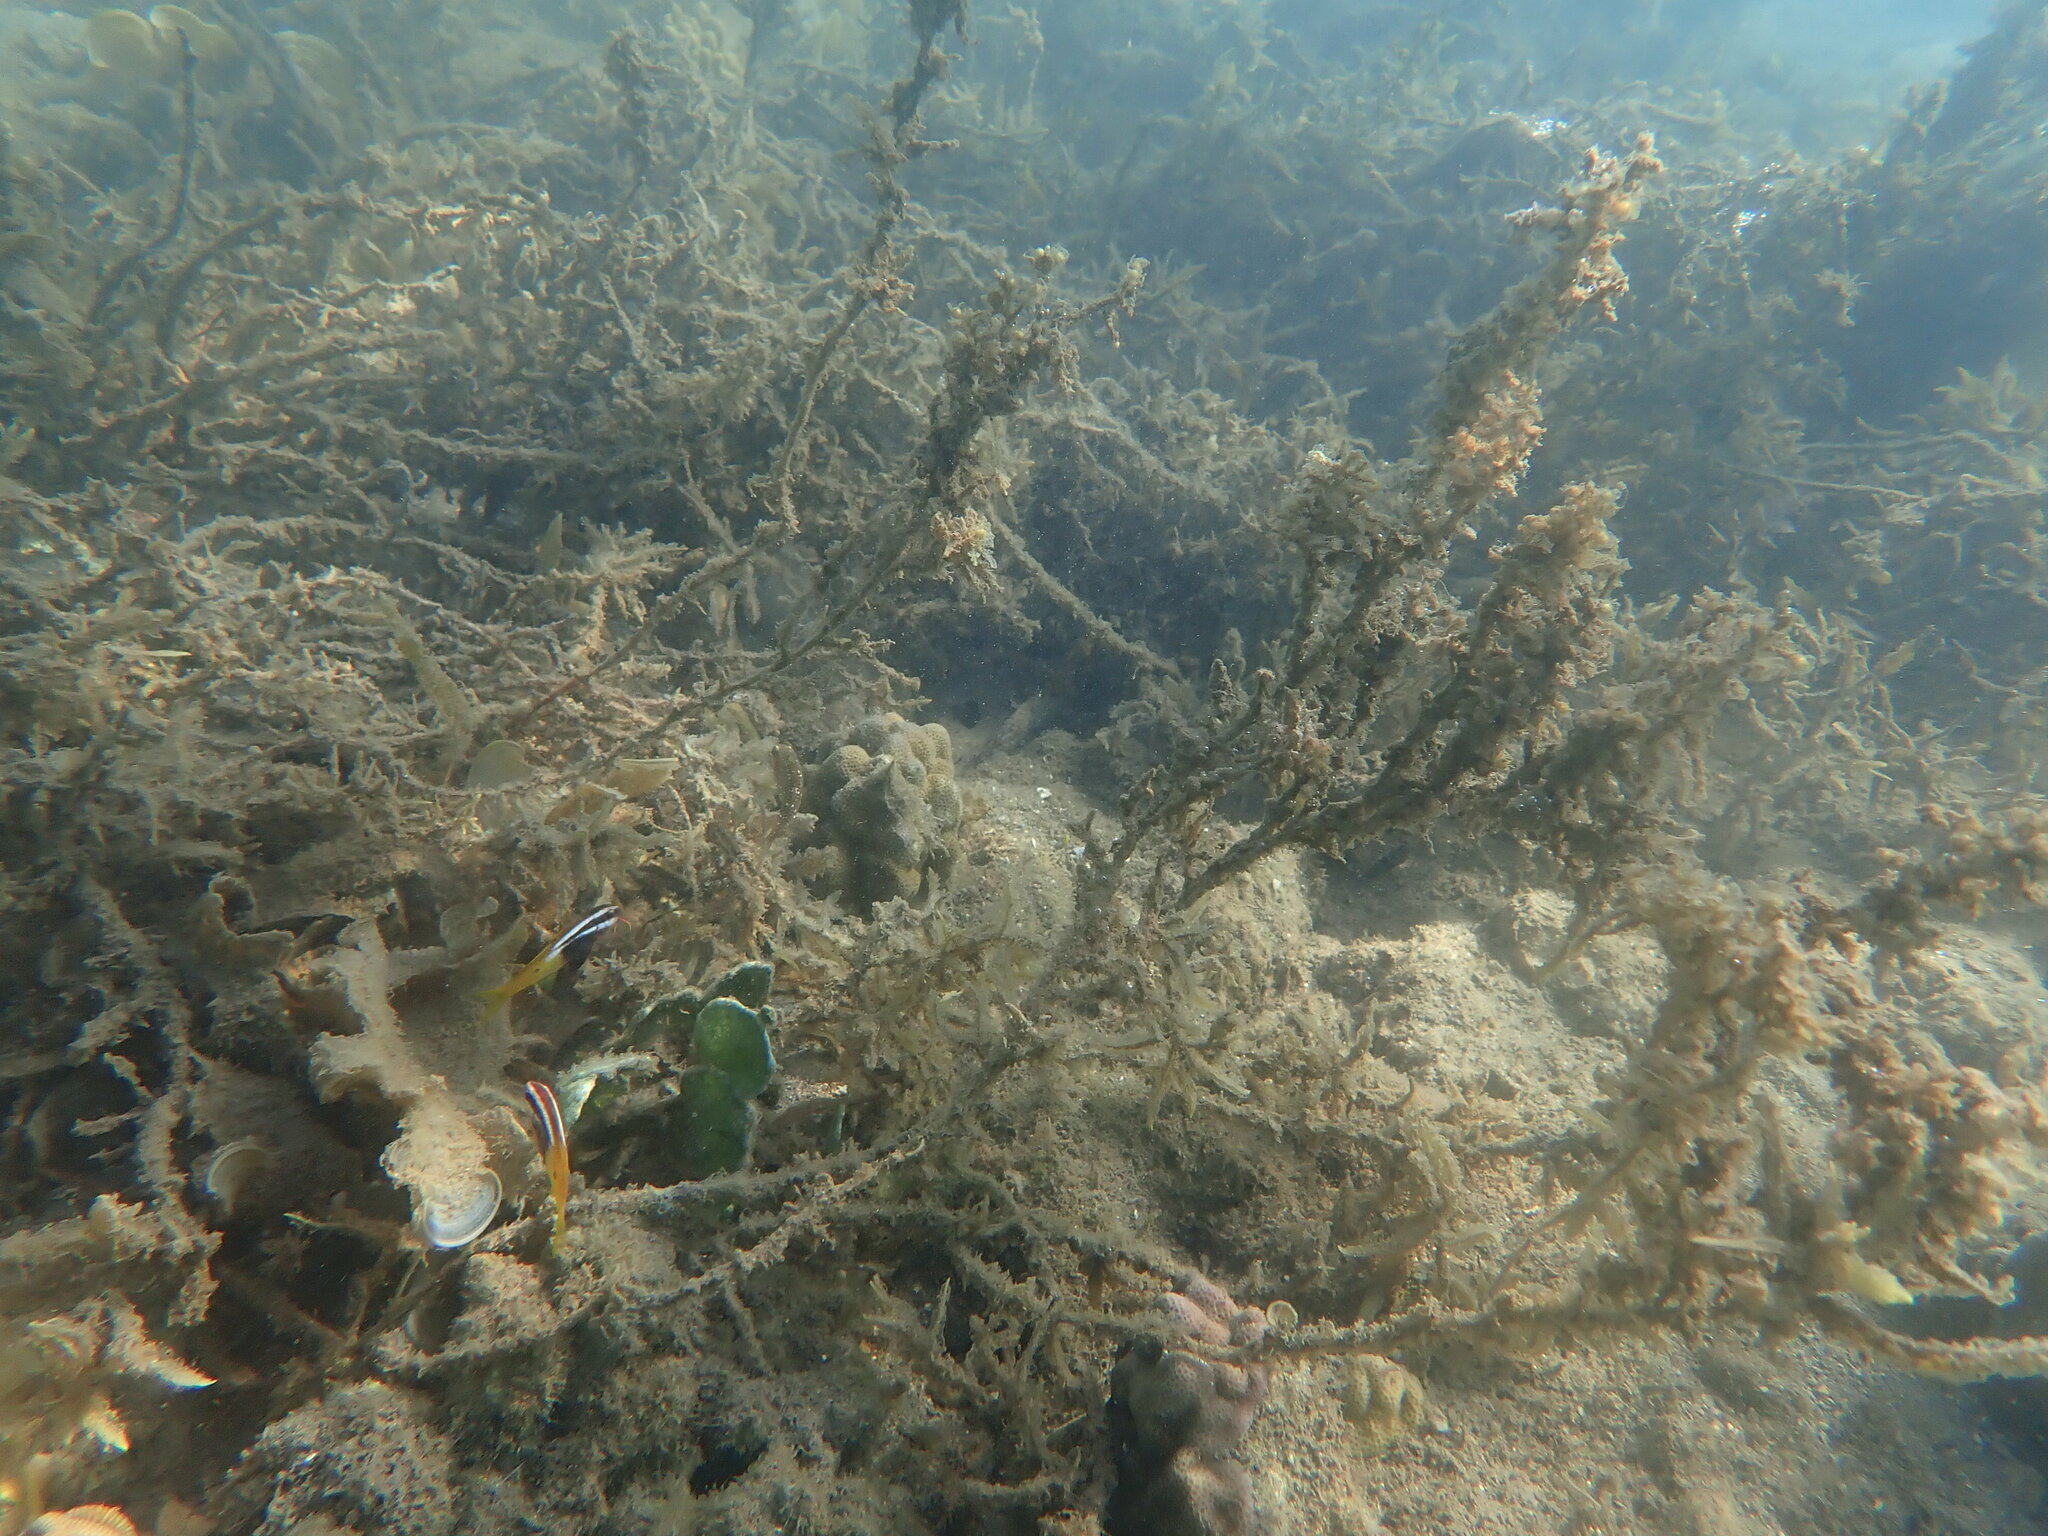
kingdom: Animalia
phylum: Chordata
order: Perciformes
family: Mullidae
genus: Parupeneus
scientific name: Parupeneus barberinoides
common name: Half-and-half goatfish
